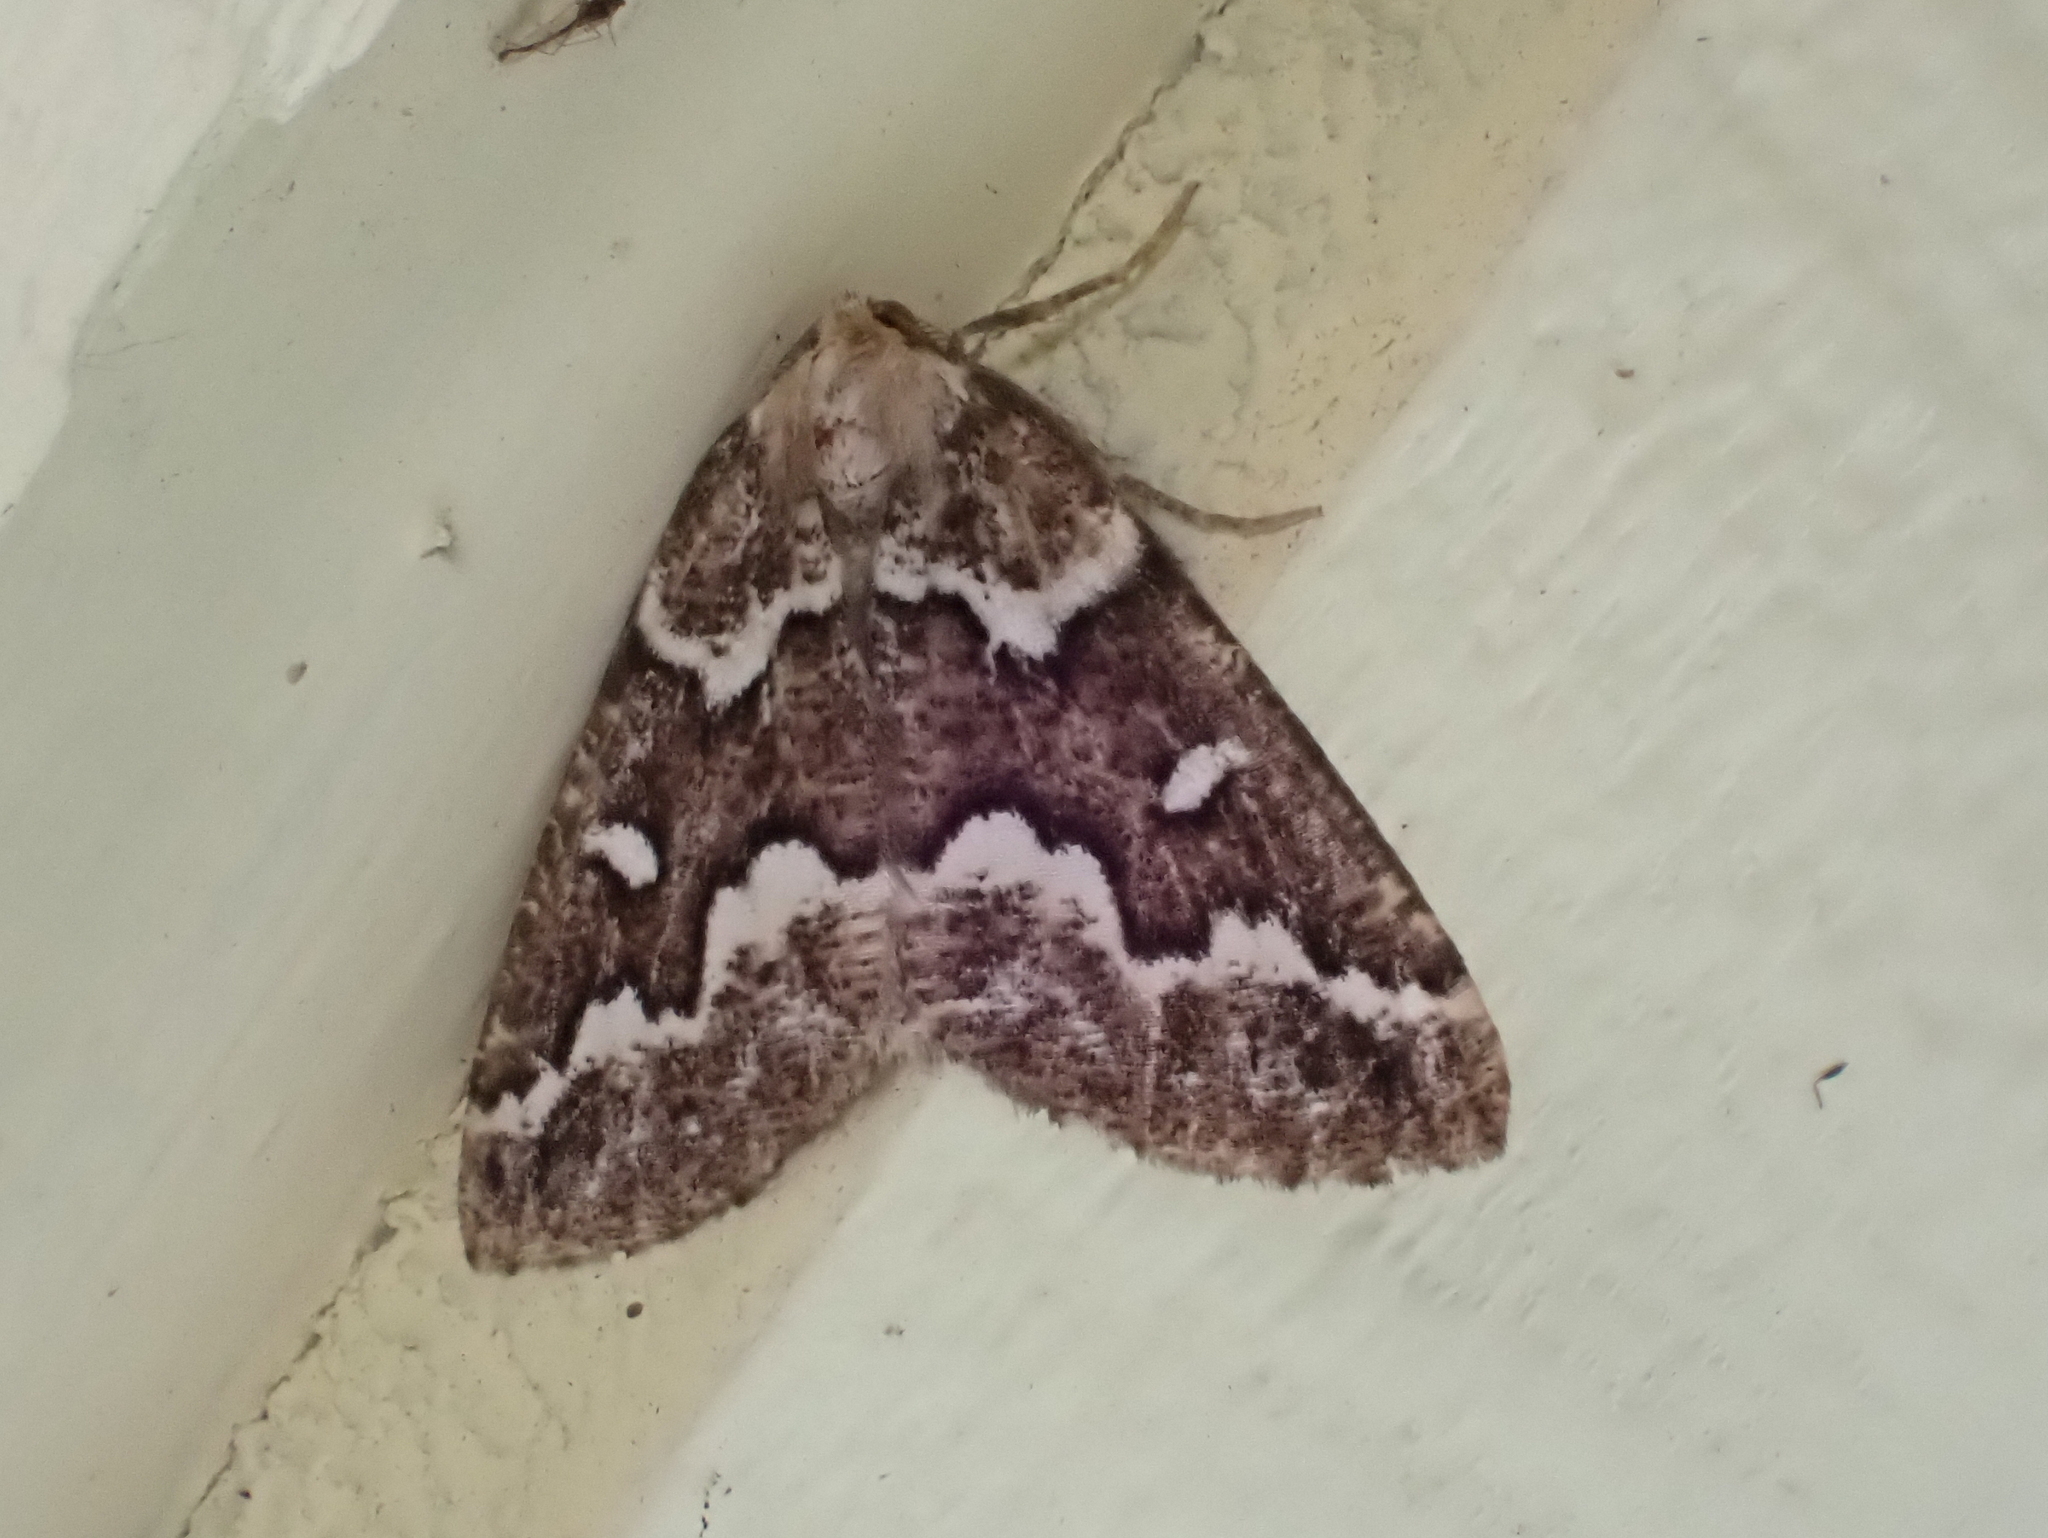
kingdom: Animalia
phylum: Arthropoda
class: Insecta
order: Lepidoptera
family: Geometridae
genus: Caripeta
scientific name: Caripeta divisata
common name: Gray spruce looper
